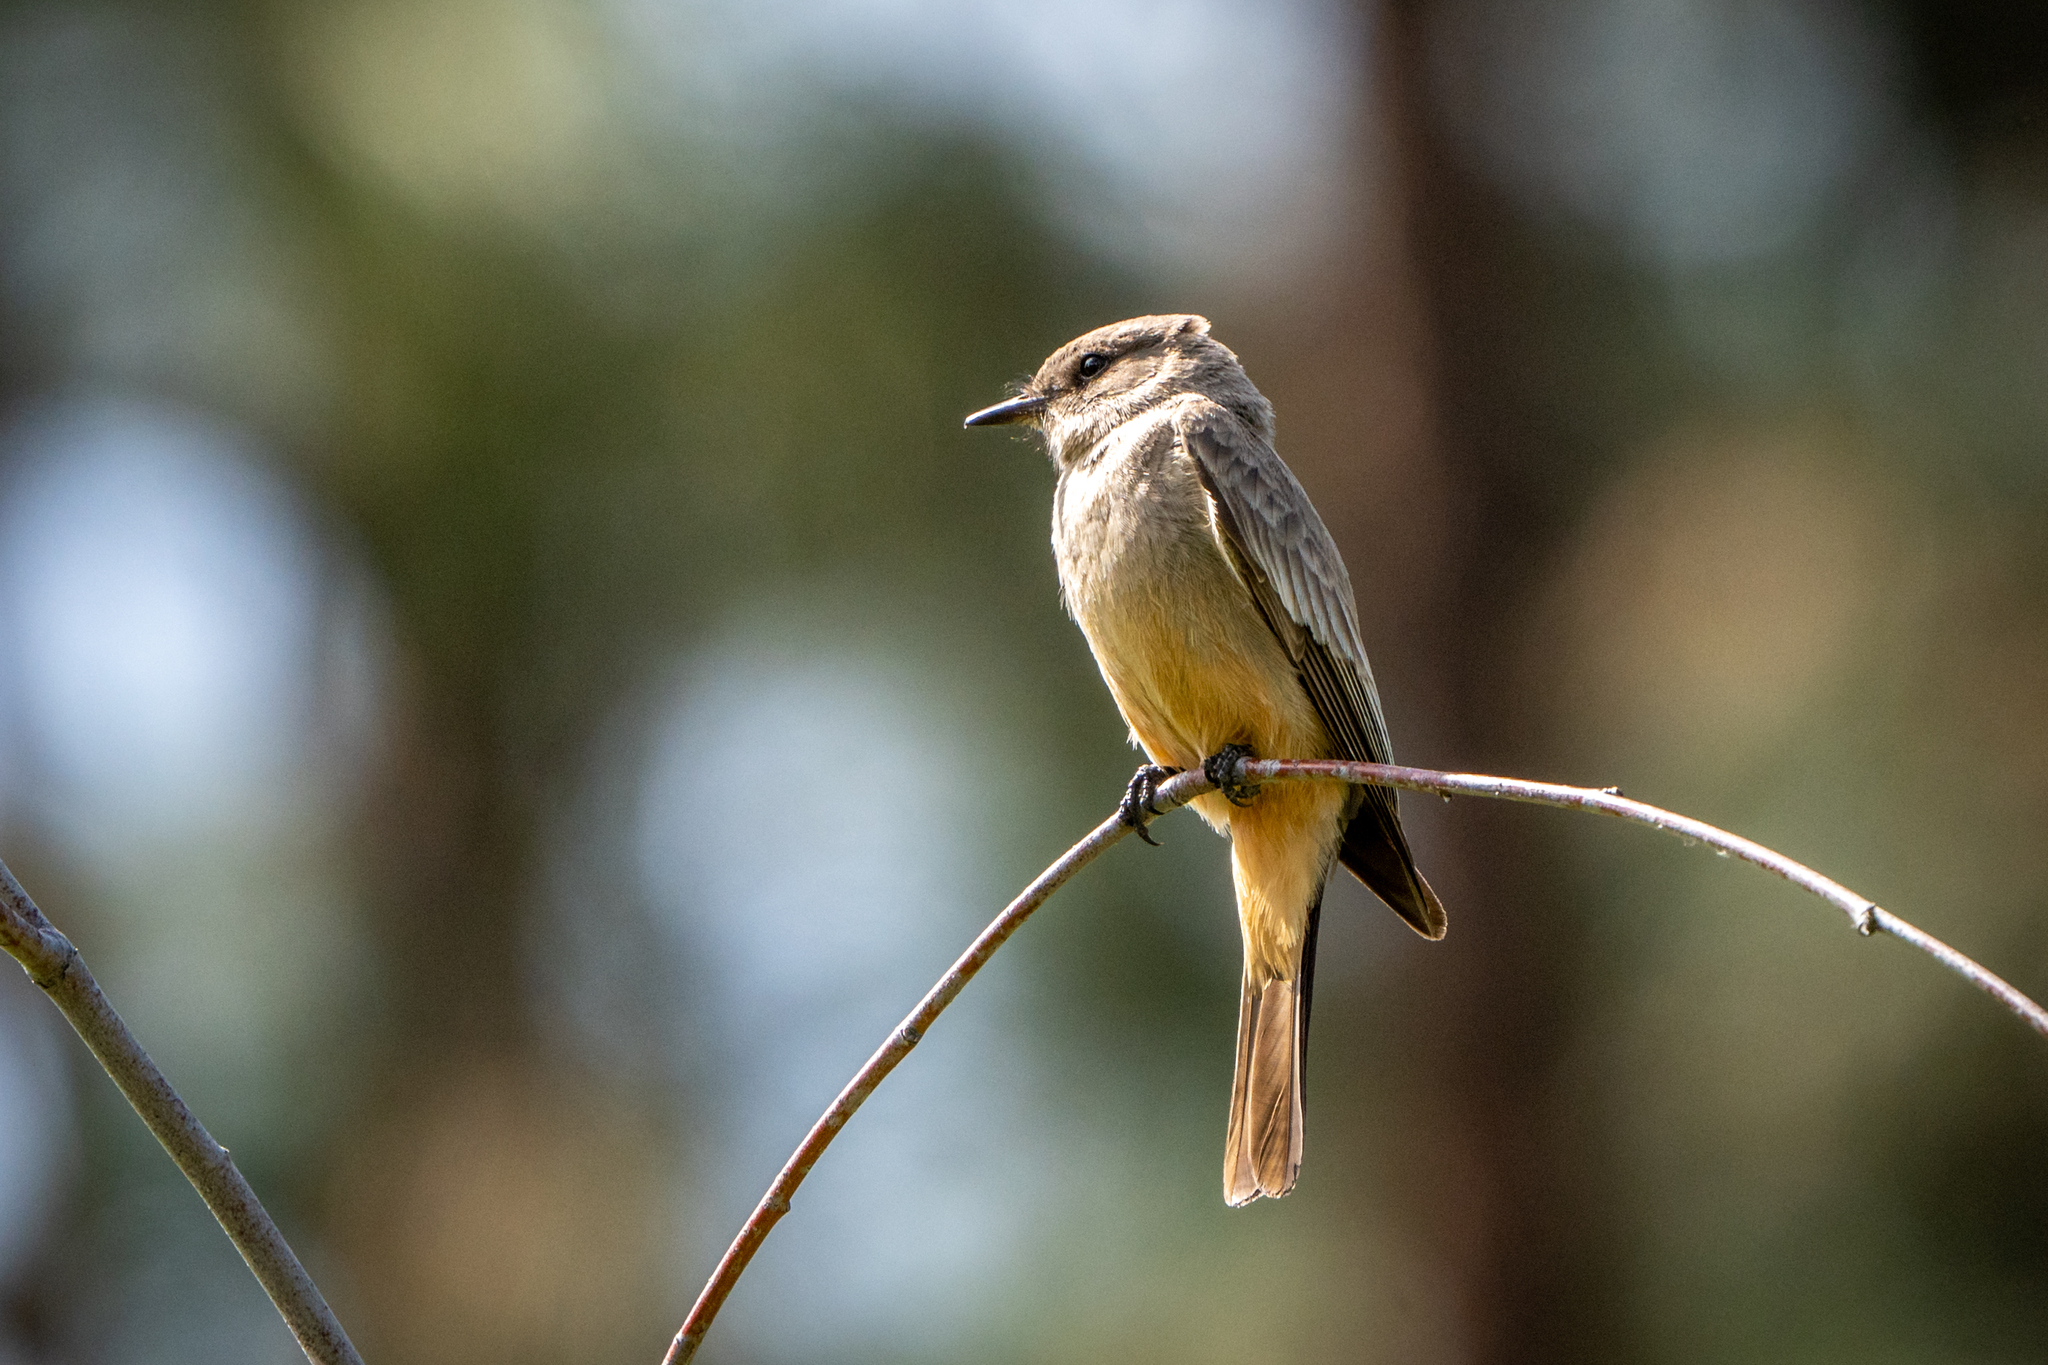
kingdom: Animalia
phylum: Chordata
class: Aves
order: Passeriformes
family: Tyrannidae
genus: Sayornis
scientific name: Sayornis saya
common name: Say's phoebe
